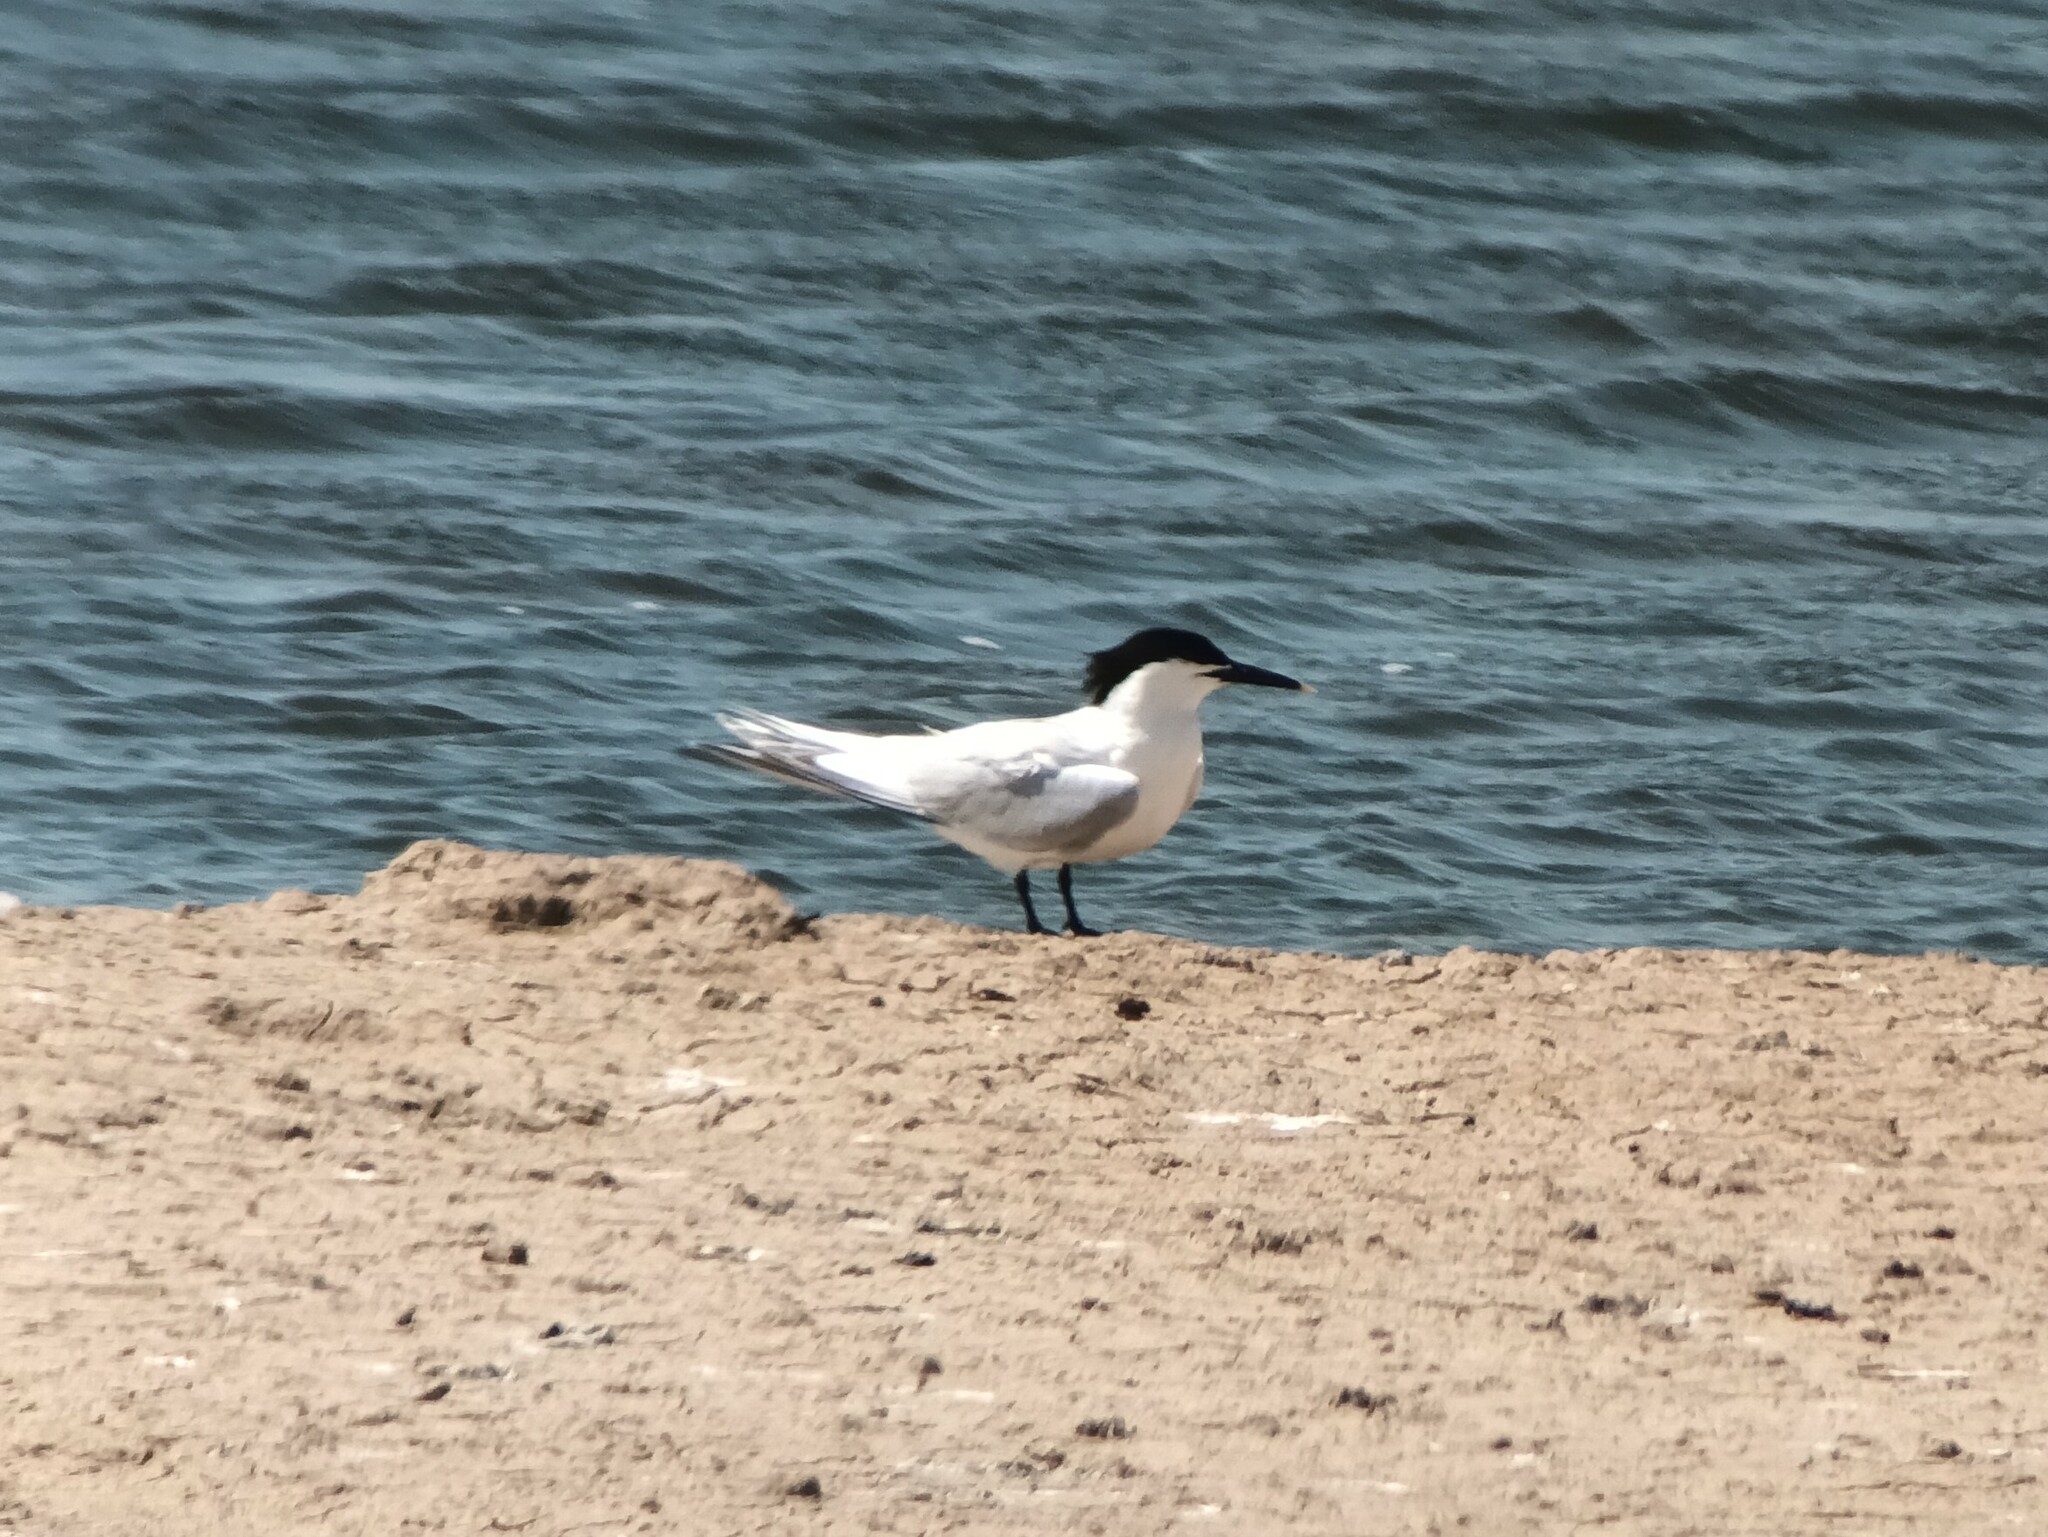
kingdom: Animalia
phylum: Chordata
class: Aves
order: Charadriiformes
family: Laridae
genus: Thalasseus
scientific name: Thalasseus sandvicensis
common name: Sandwich tern
